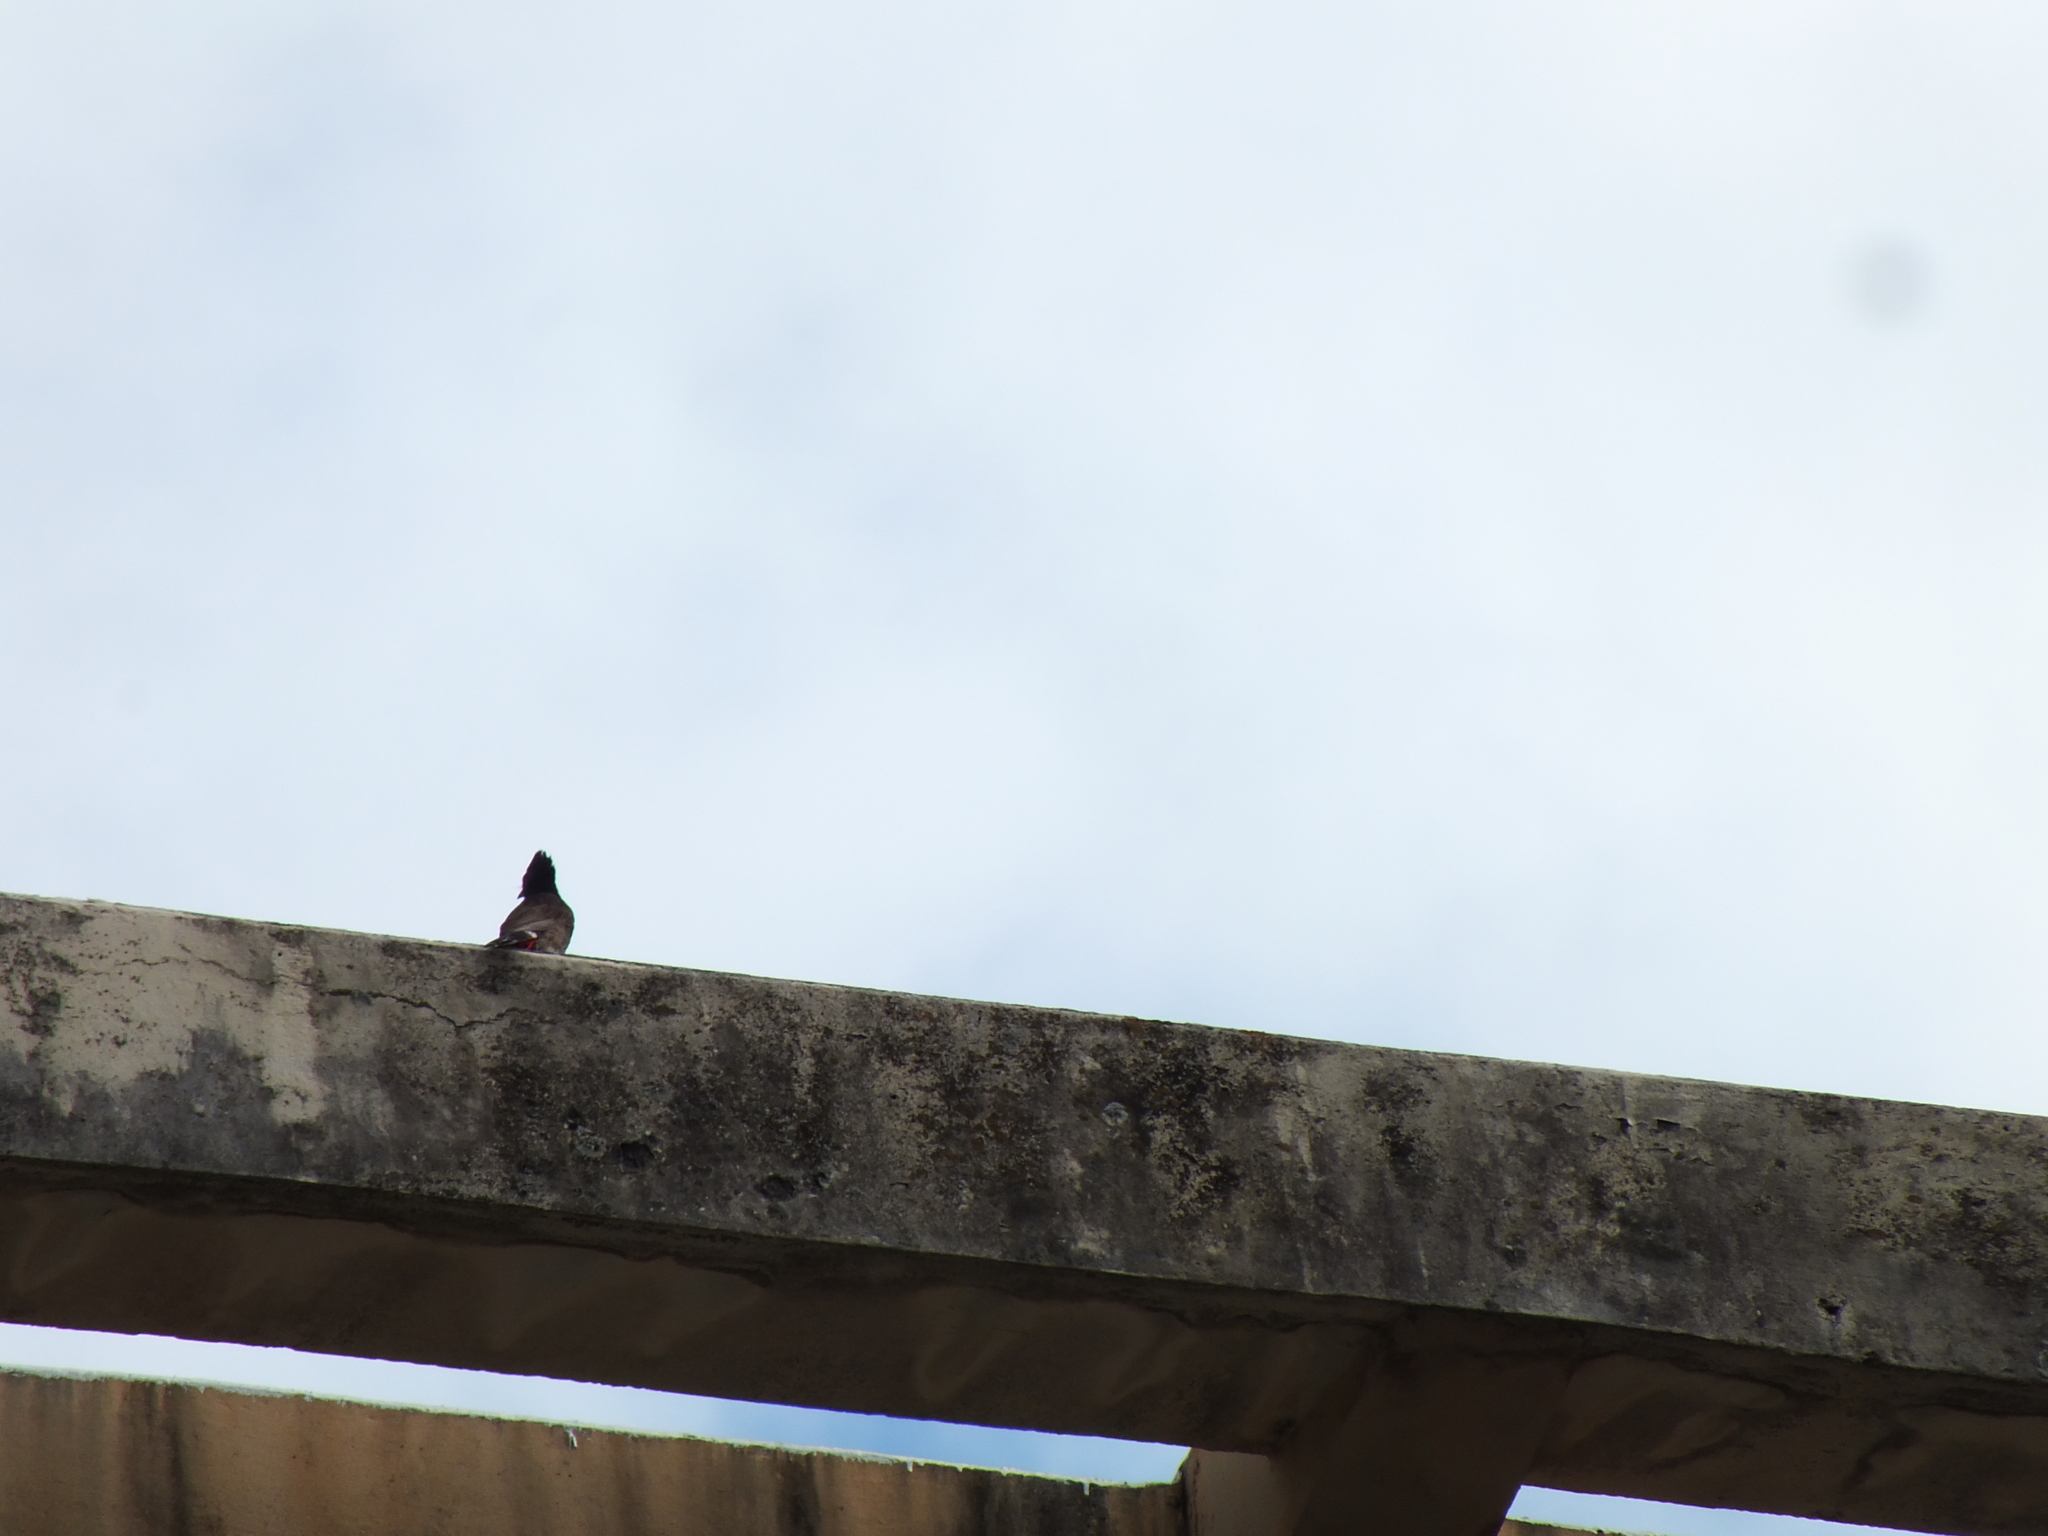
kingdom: Animalia
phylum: Chordata
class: Aves
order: Passeriformes
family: Pycnonotidae
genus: Pycnonotus
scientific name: Pycnonotus cafer
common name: Red-vented bulbul
